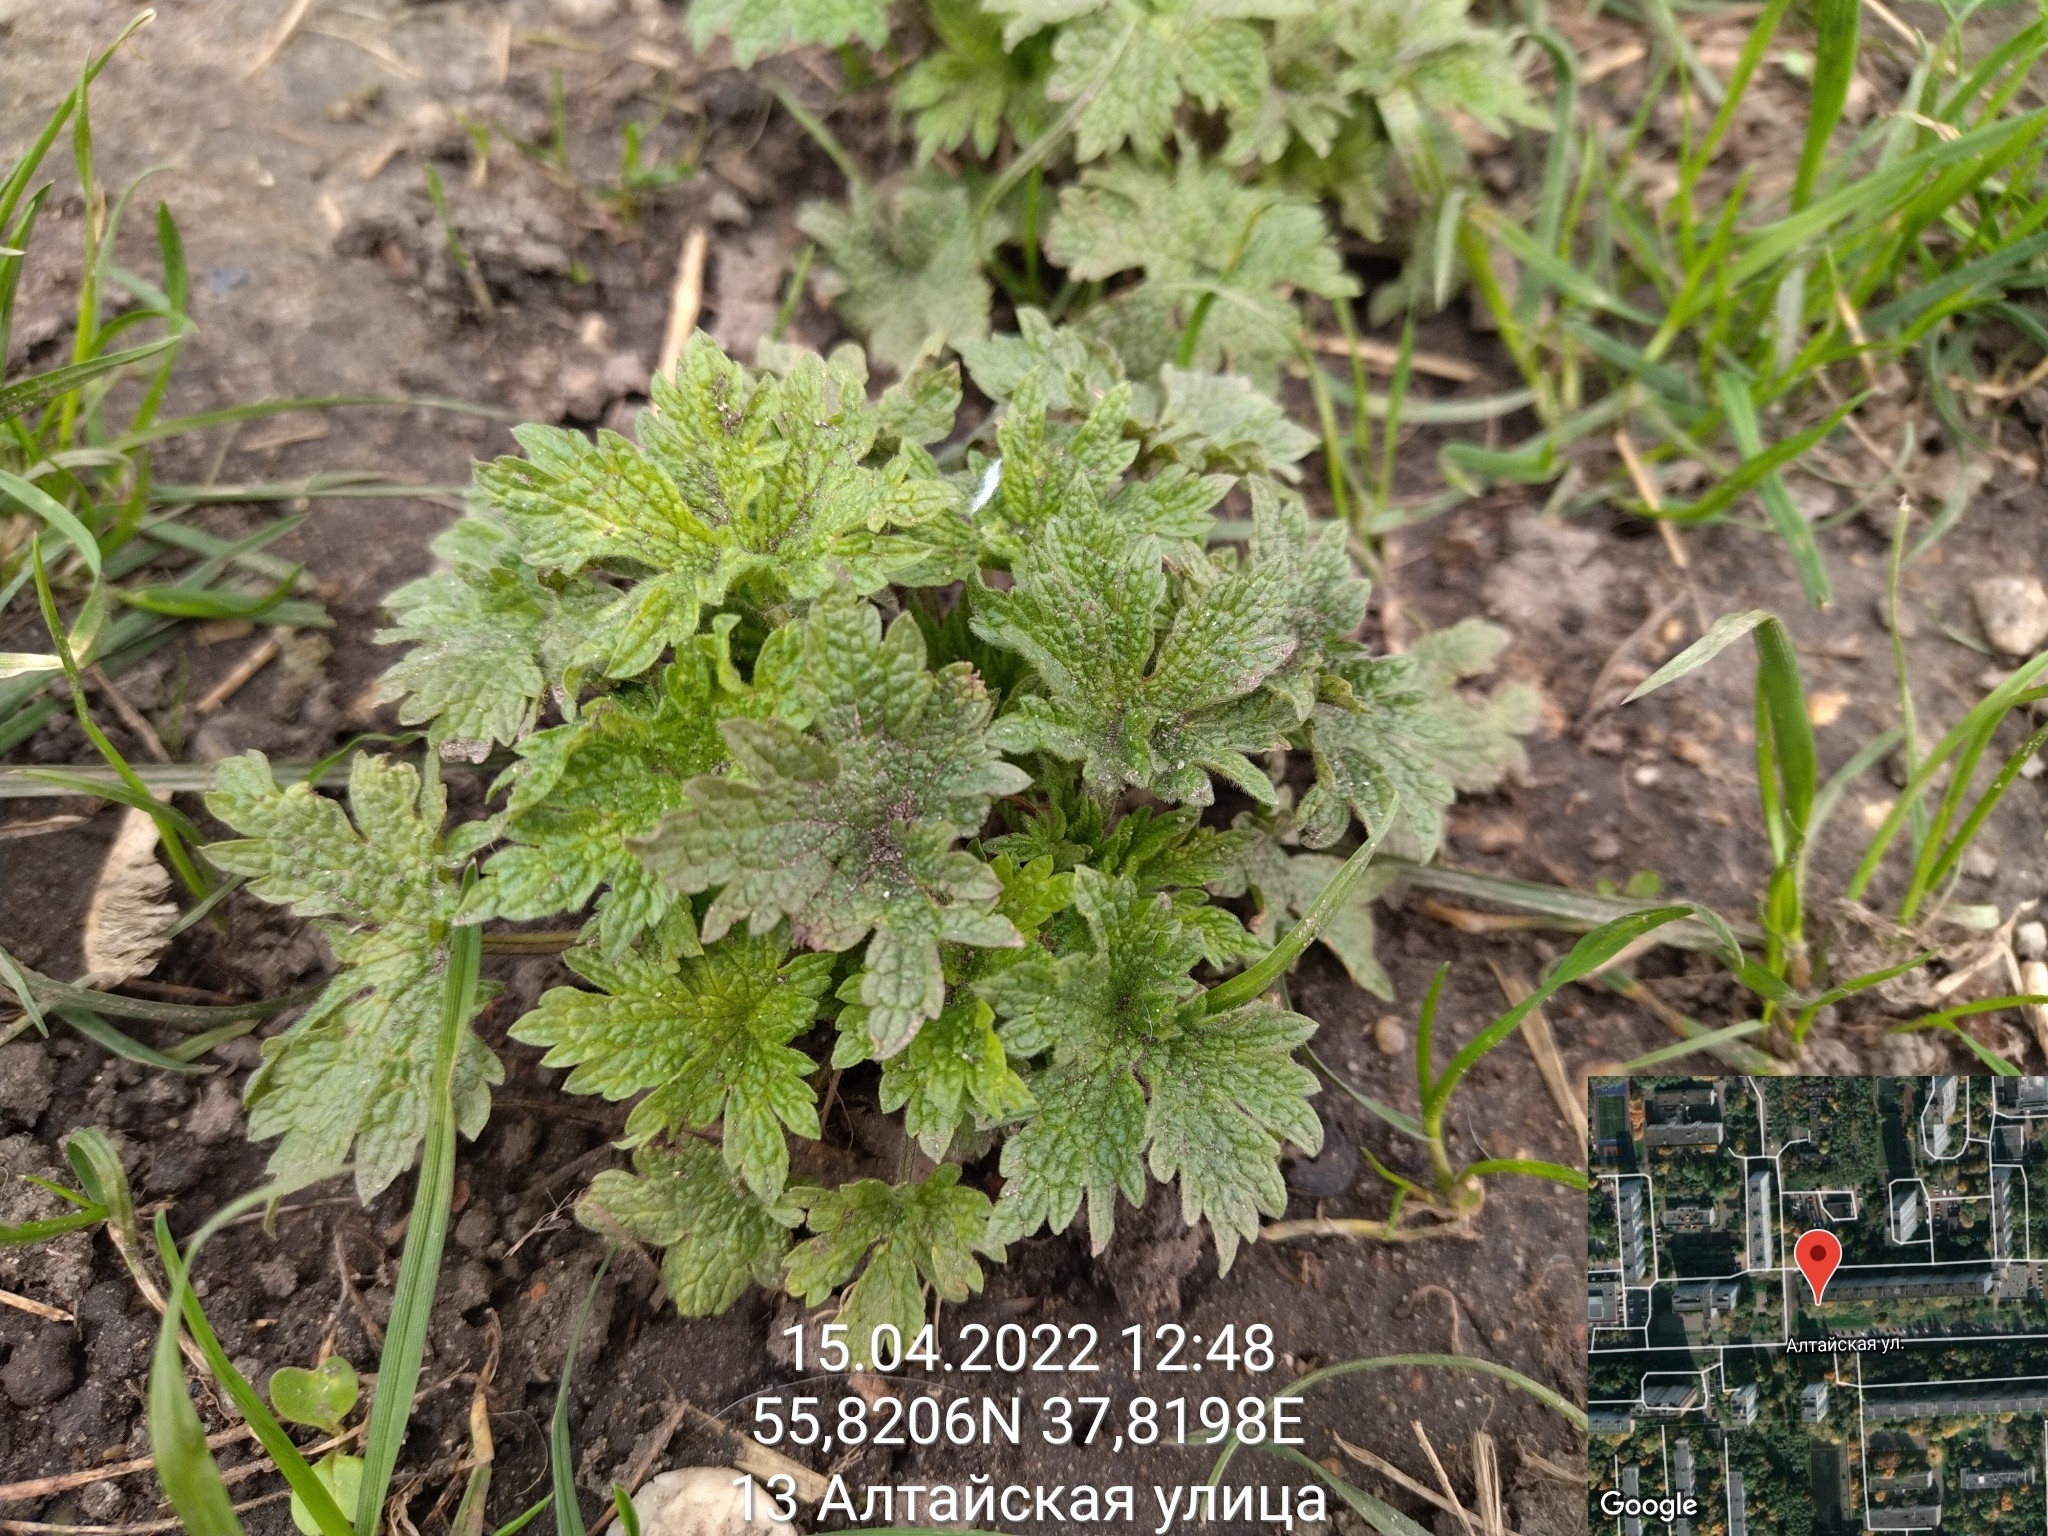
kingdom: Plantae
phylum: Tracheophyta
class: Magnoliopsida
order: Lamiales
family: Lamiaceae
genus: Leonurus
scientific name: Leonurus quinquelobatus
